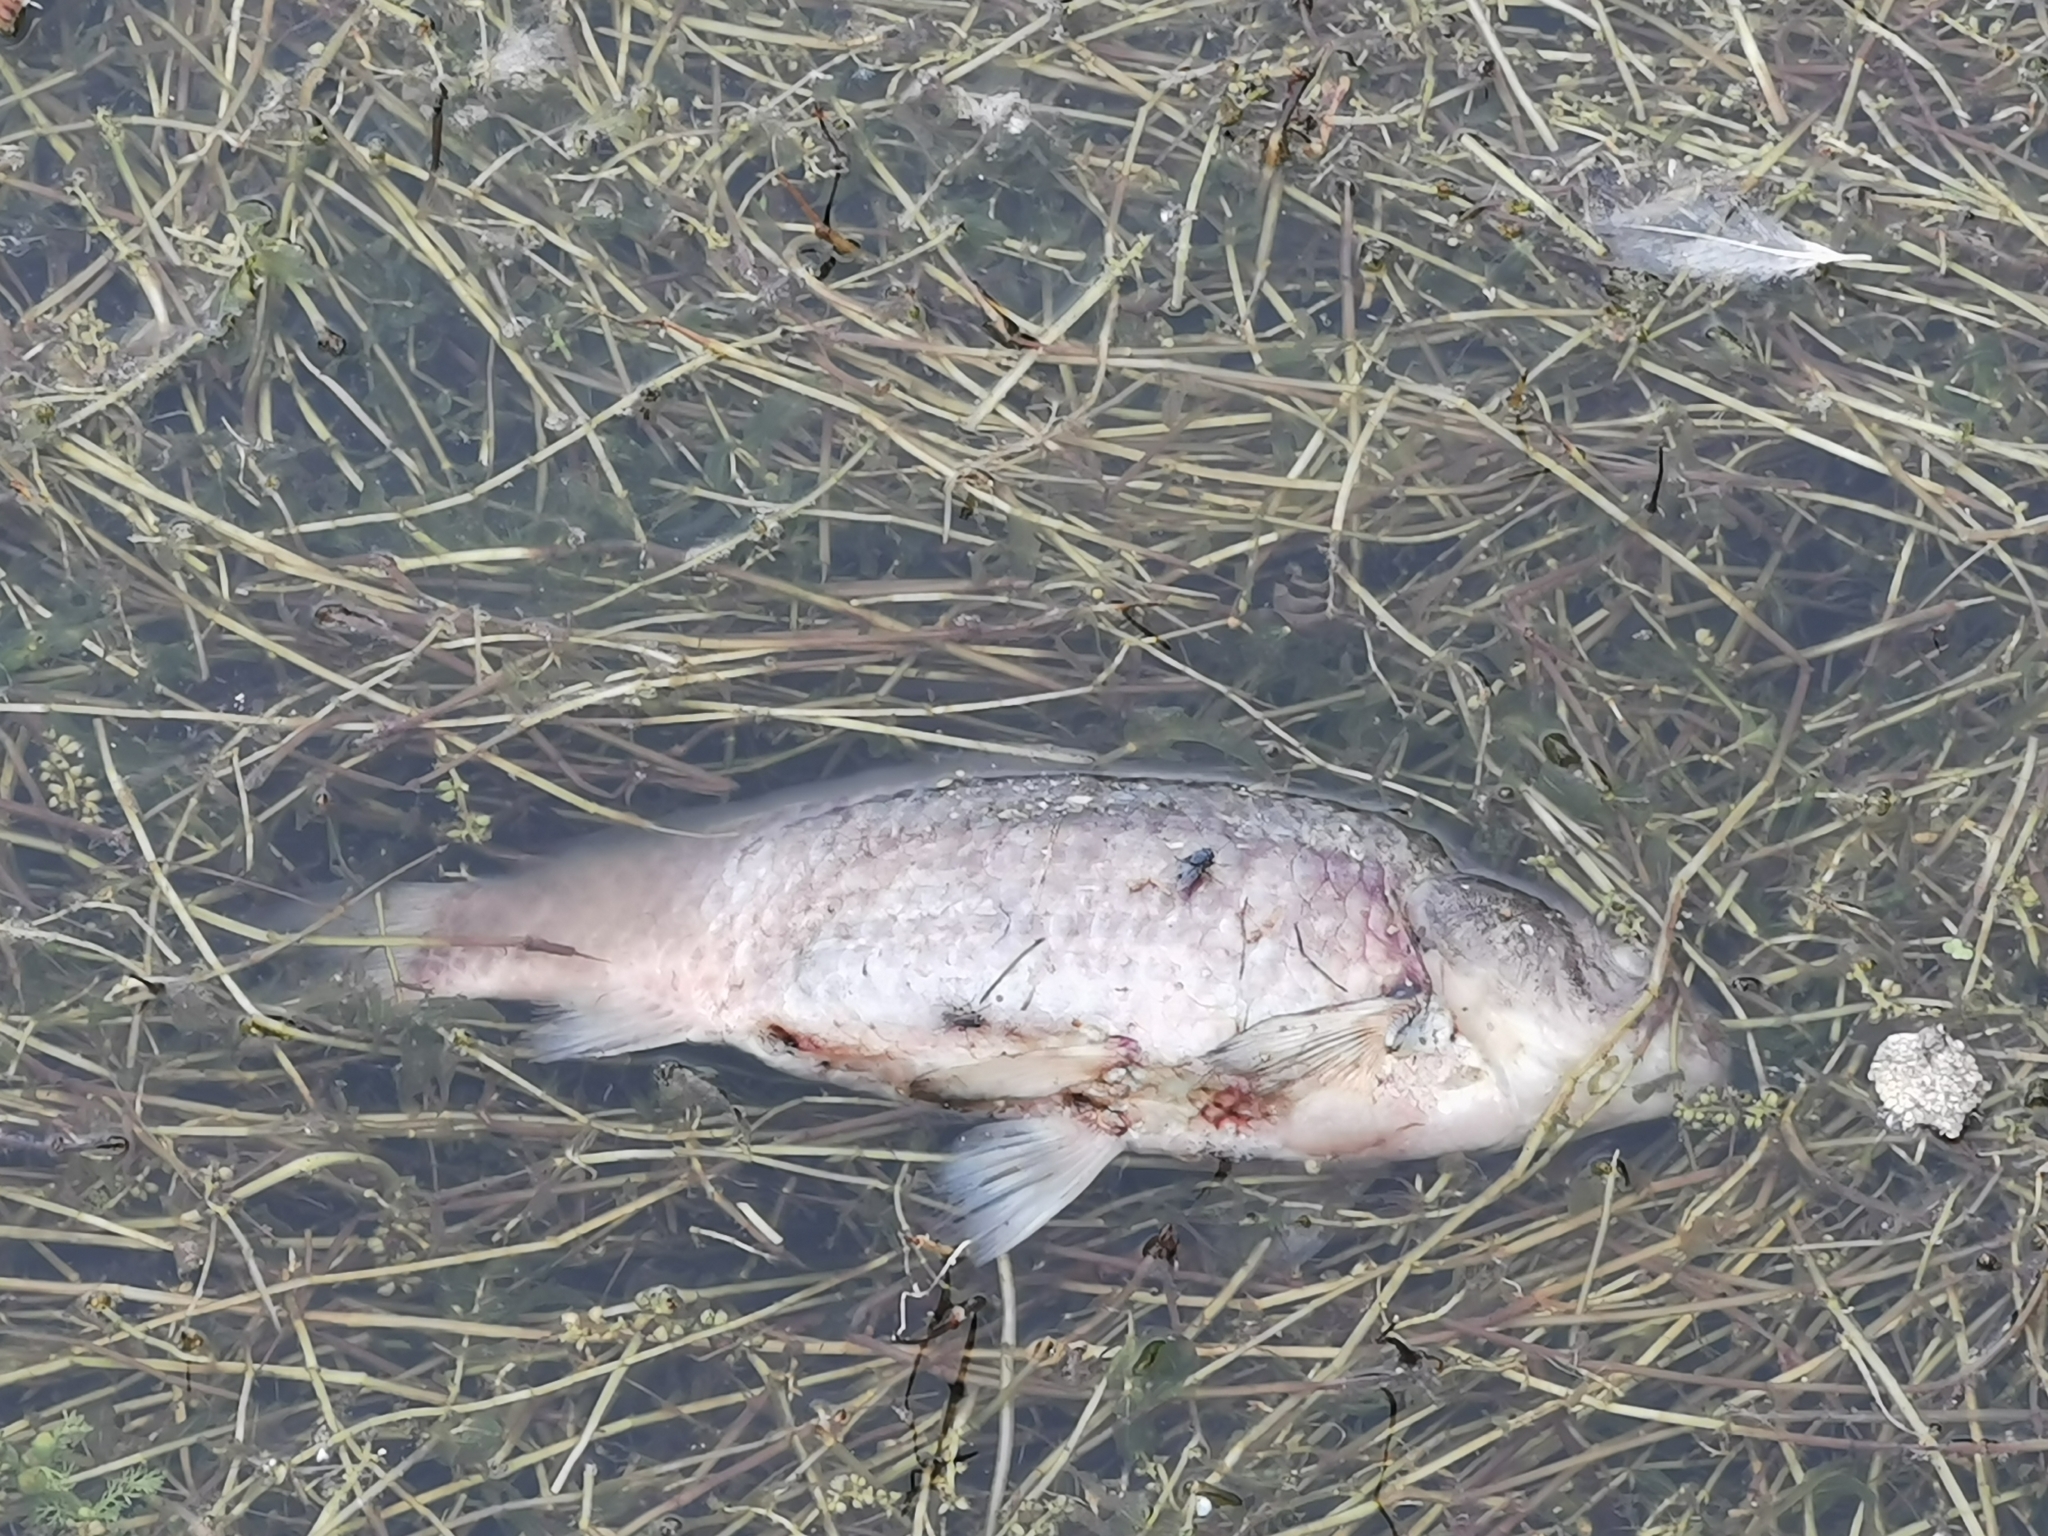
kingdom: Animalia
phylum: Chordata
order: Cypriniformes
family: Cyprinidae
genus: Carassius
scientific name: Carassius gibelio
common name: Prussian carp
